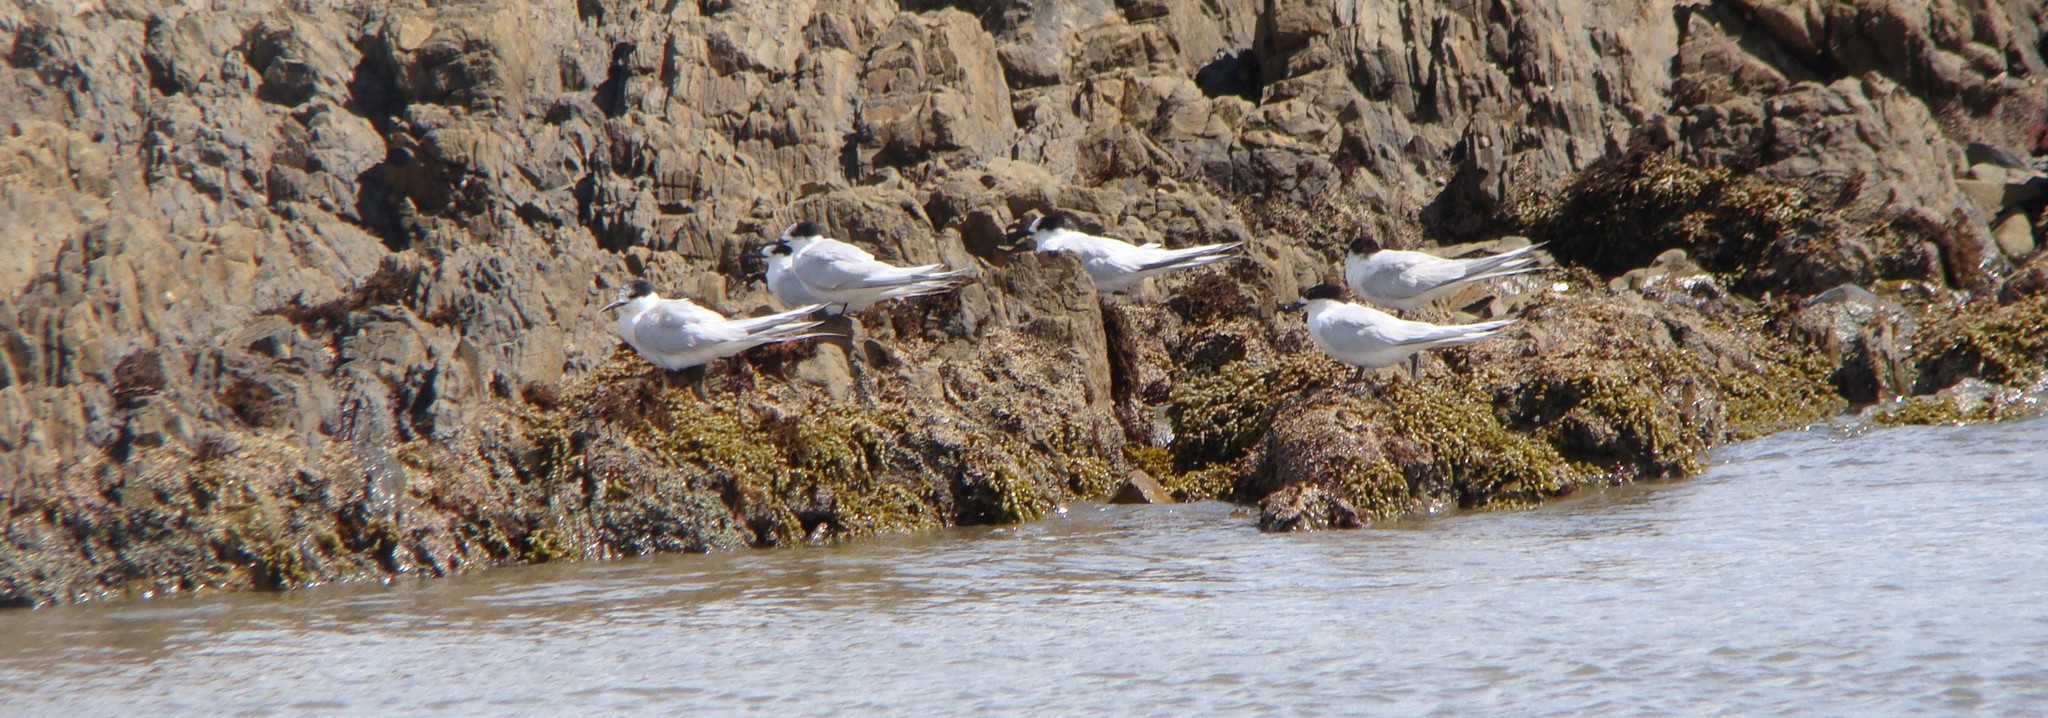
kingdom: Animalia
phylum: Chordata
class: Aves
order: Charadriiformes
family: Laridae
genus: Sterna
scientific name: Sterna striata
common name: White-fronted tern
